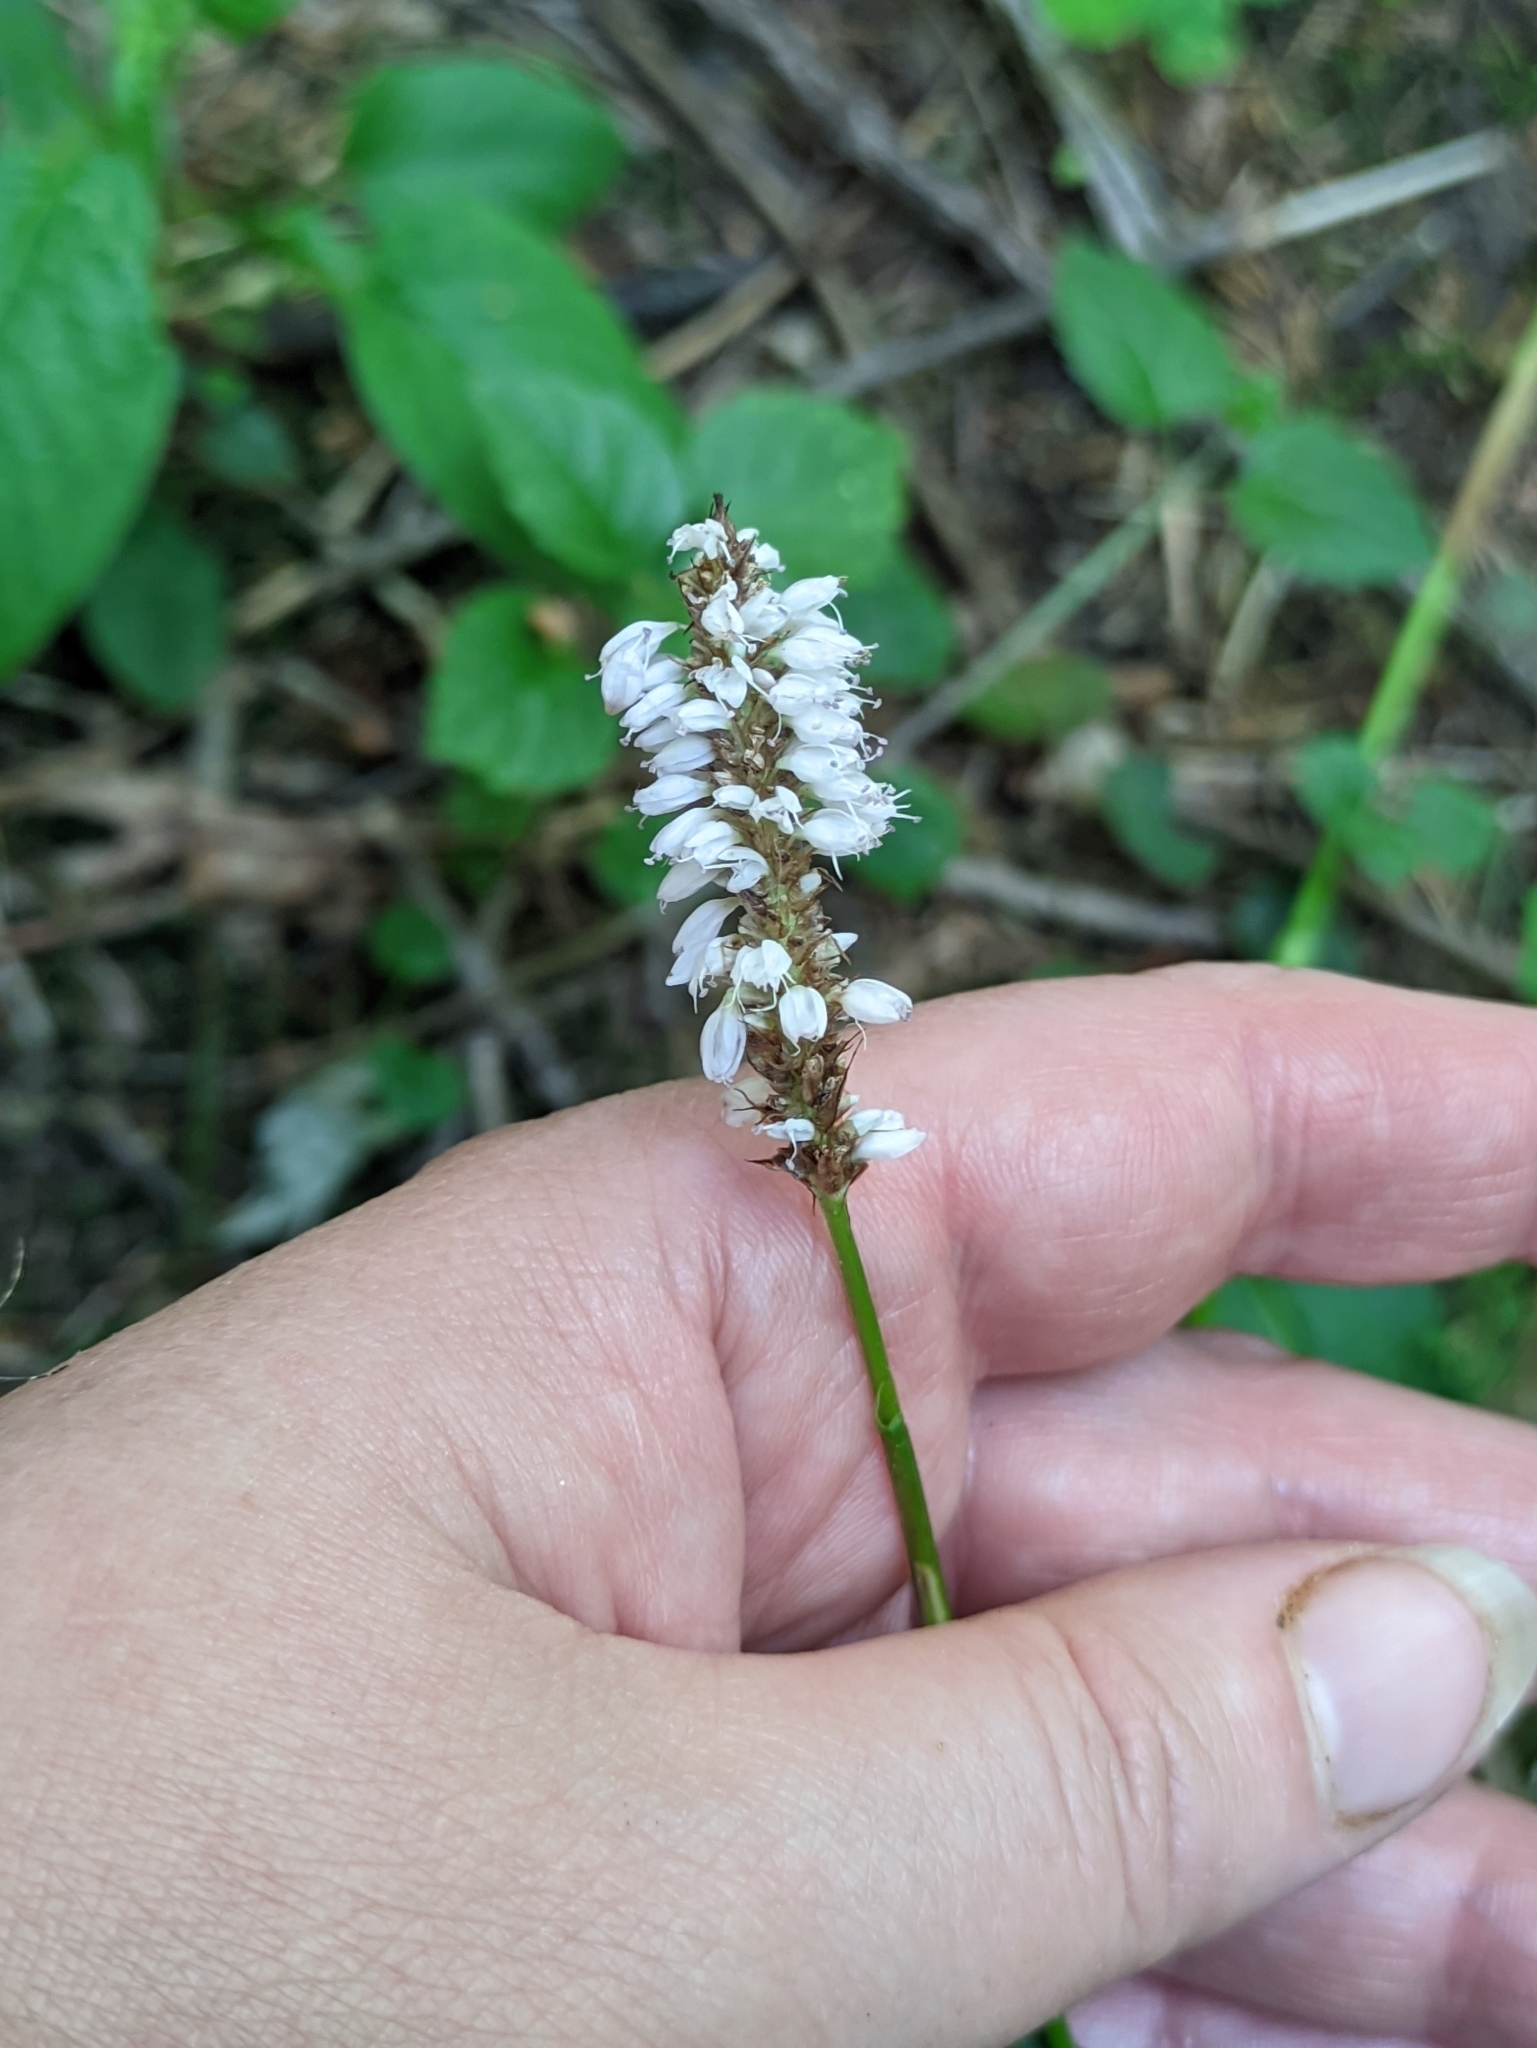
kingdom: Plantae
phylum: Tracheophyta
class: Magnoliopsida
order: Caryophyllales
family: Polygonaceae
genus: Bistorta
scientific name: Bistorta officinalis
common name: Common bistort
